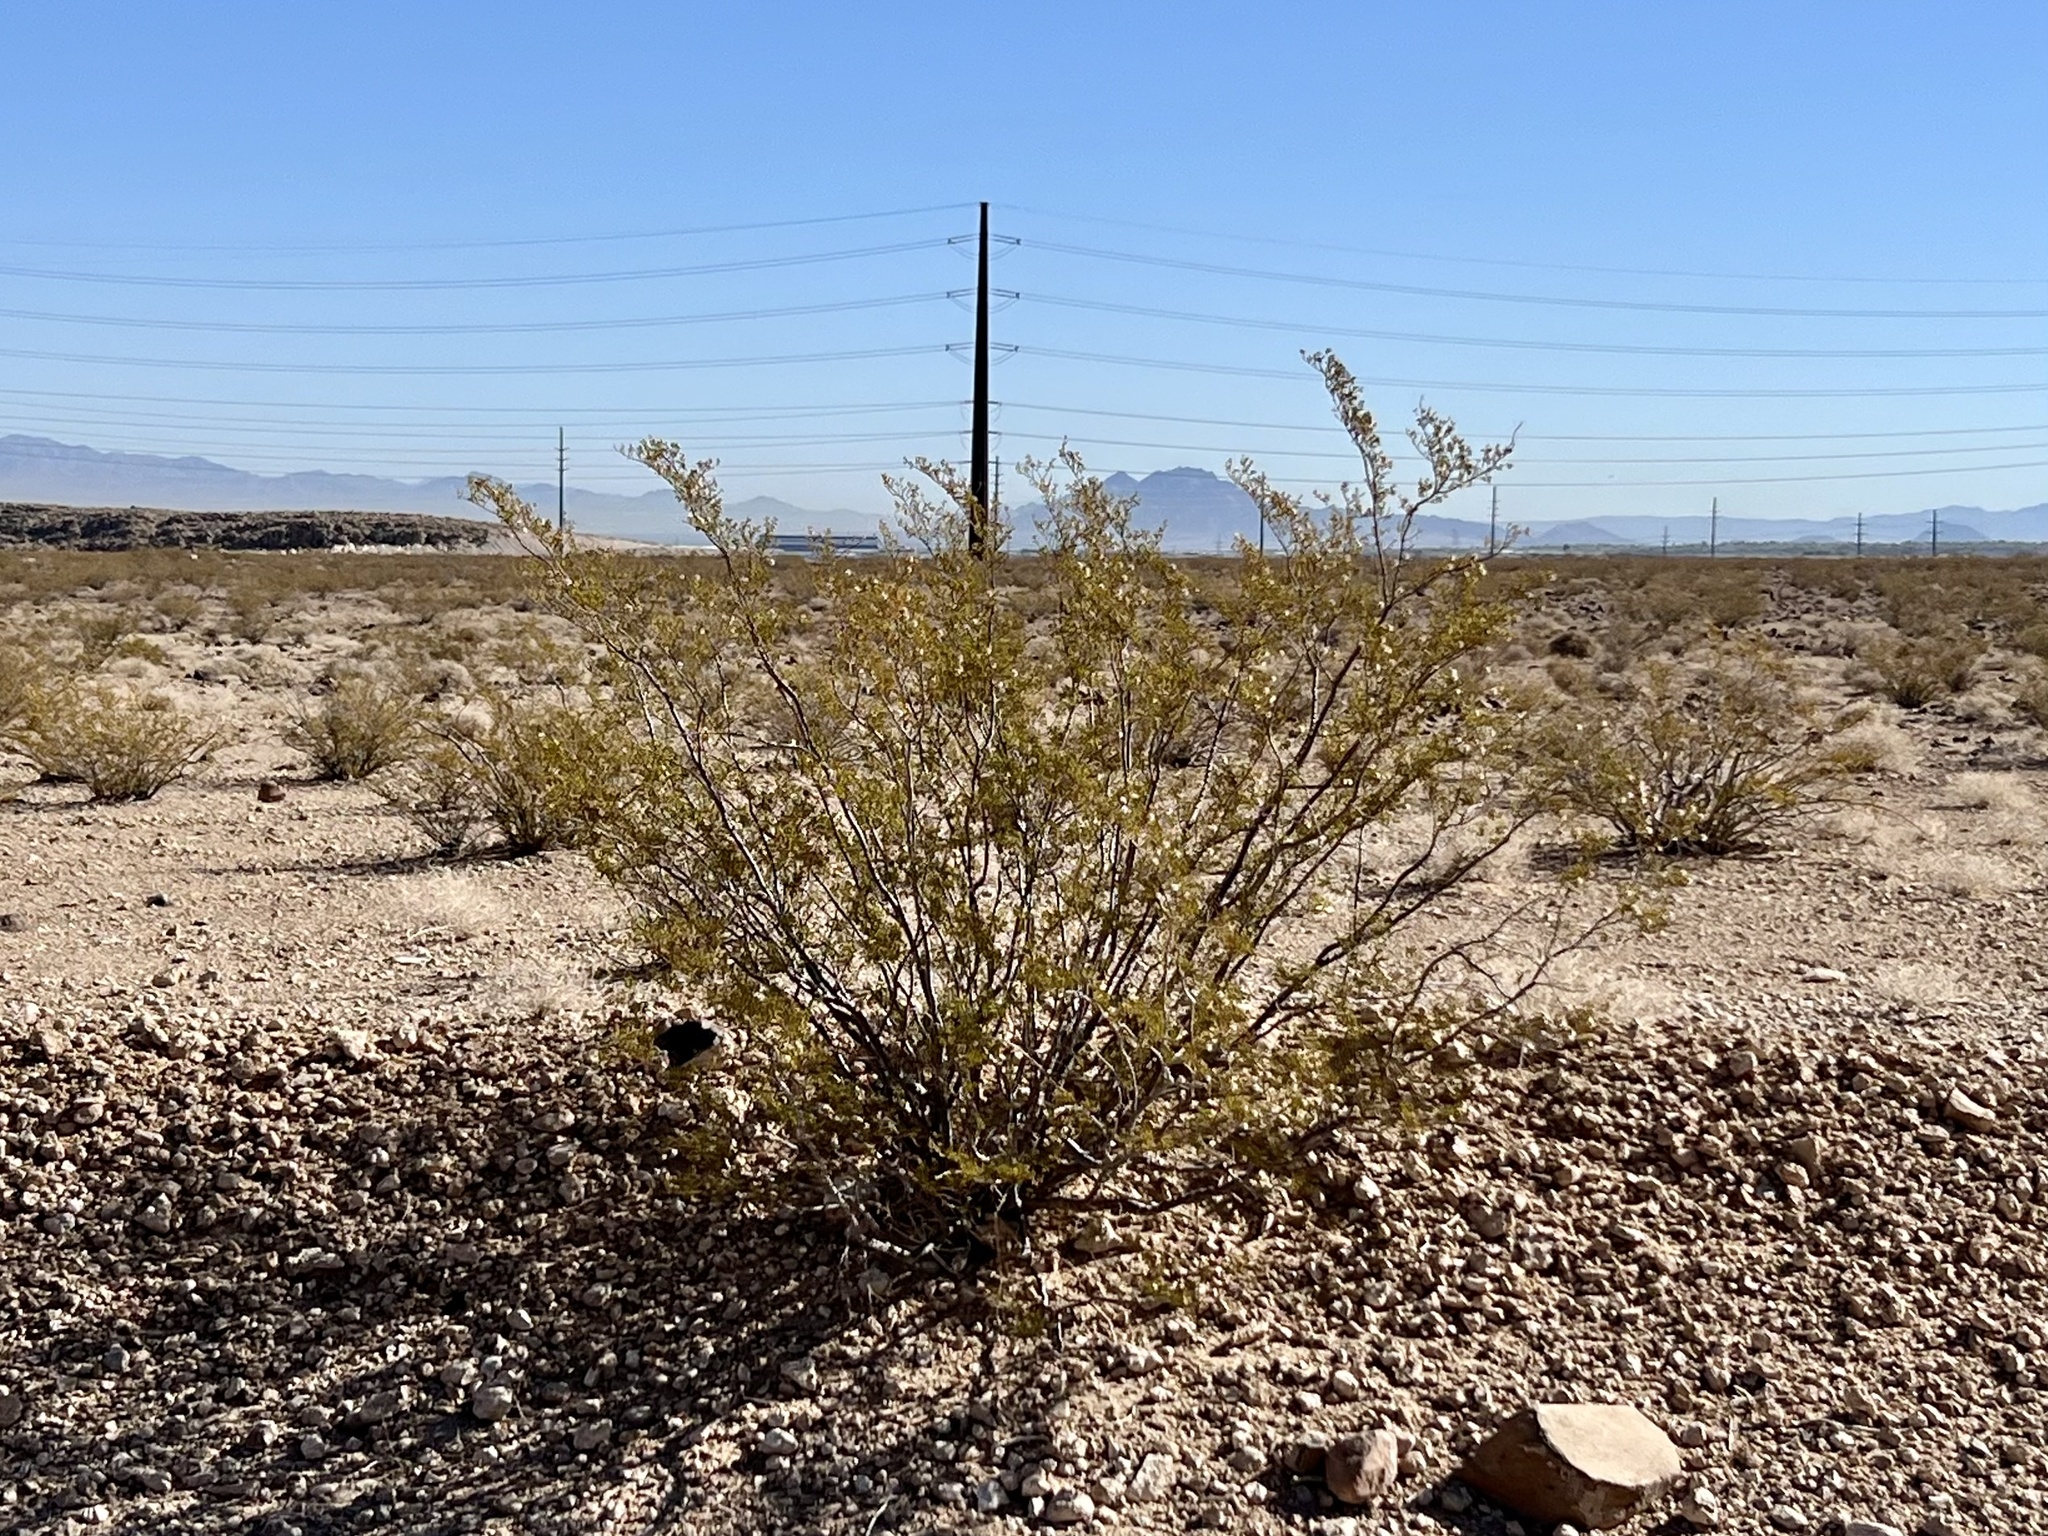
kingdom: Plantae
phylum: Tracheophyta
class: Magnoliopsida
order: Zygophyllales
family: Zygophyllaceae
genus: Larrea
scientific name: Larrea tridentata
